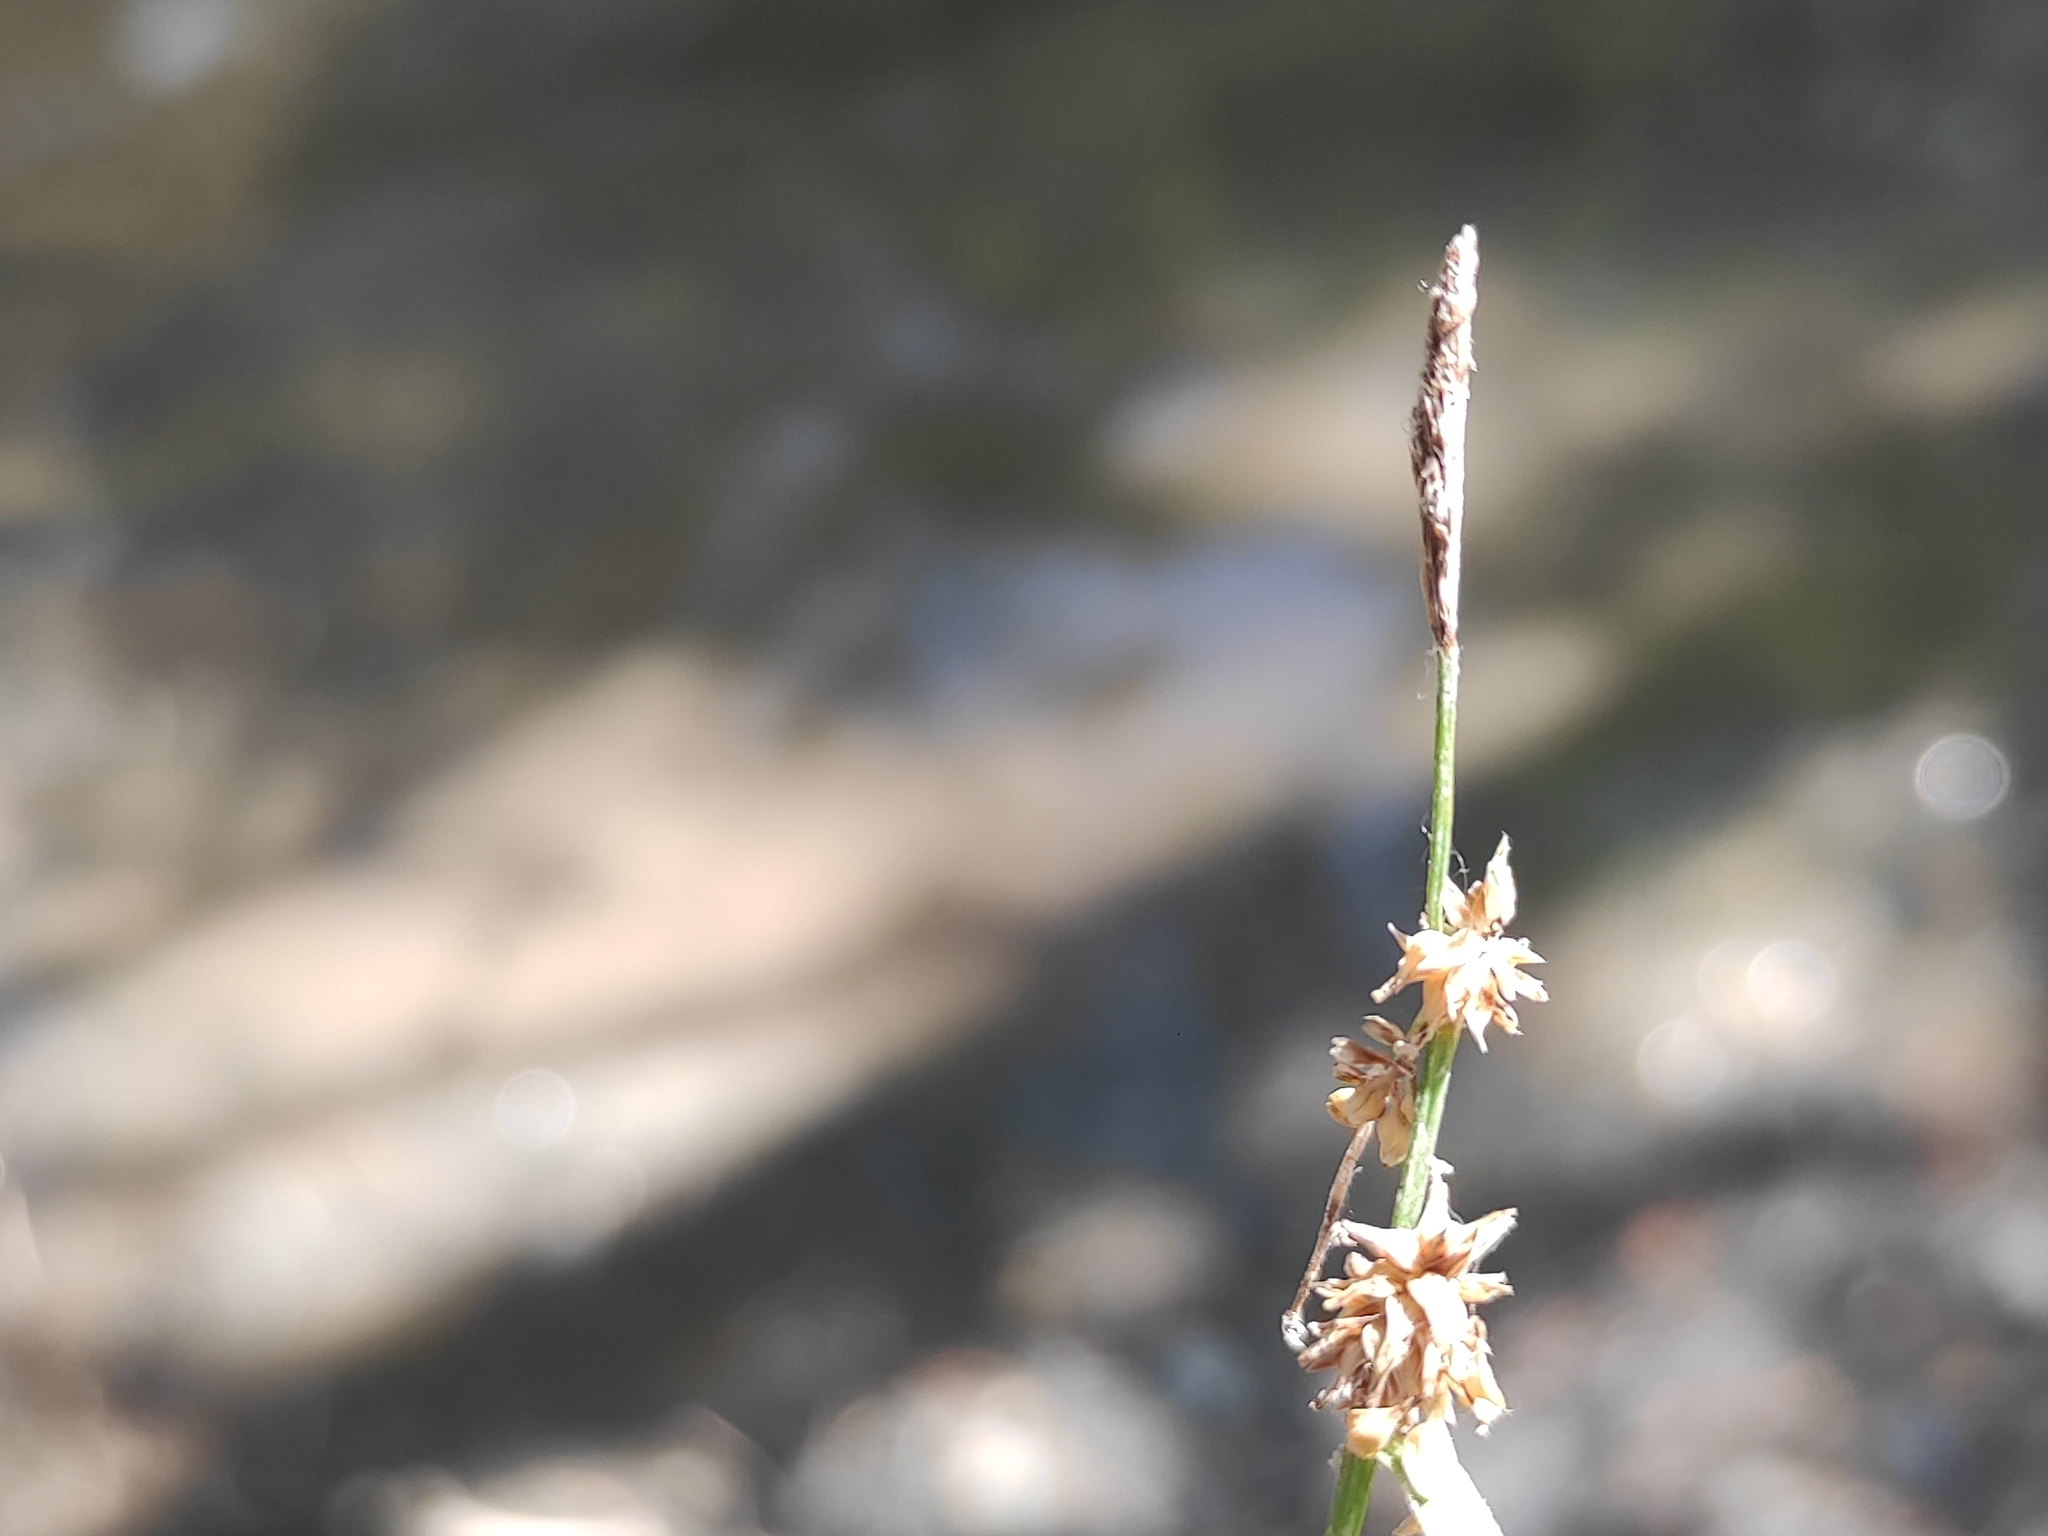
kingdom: Plantae
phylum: Tracheophyta
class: Liliopsida
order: Poales
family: Cyperaceae
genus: Carex
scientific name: Carex lepidocarpa
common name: Long-stalked yellow-sedge
